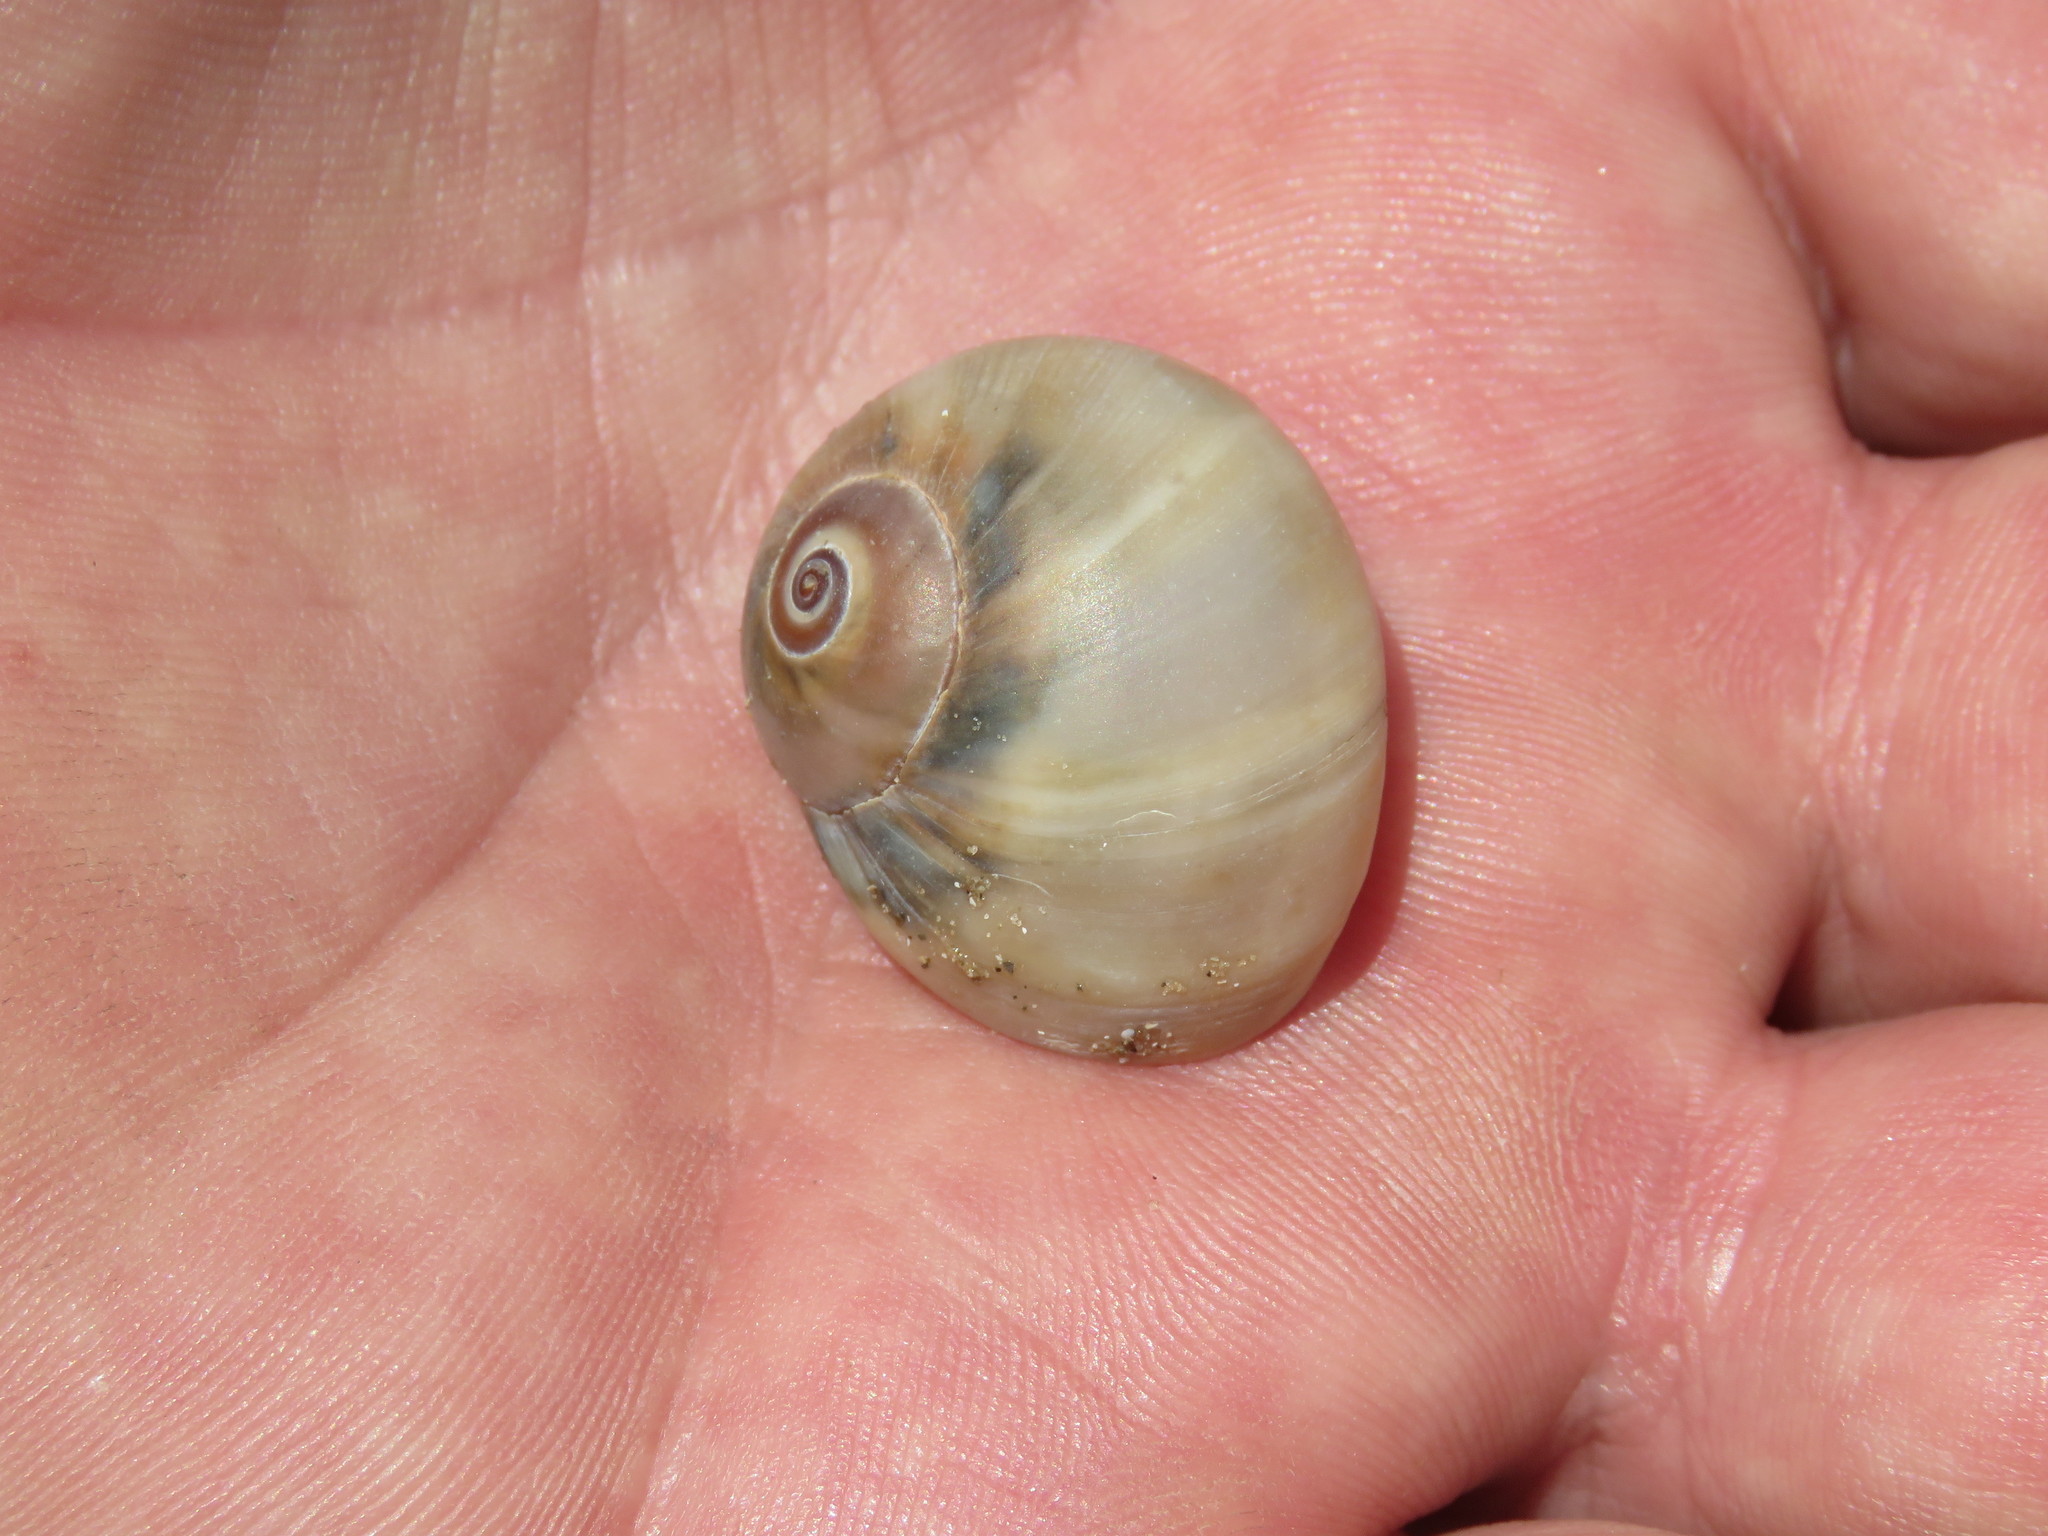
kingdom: Animalia
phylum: Mollusca
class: Gastropoda
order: Littorinimorpha
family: Naticidae
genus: Neverita
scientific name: Neverita duplicata
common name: Lobed moonsnail
